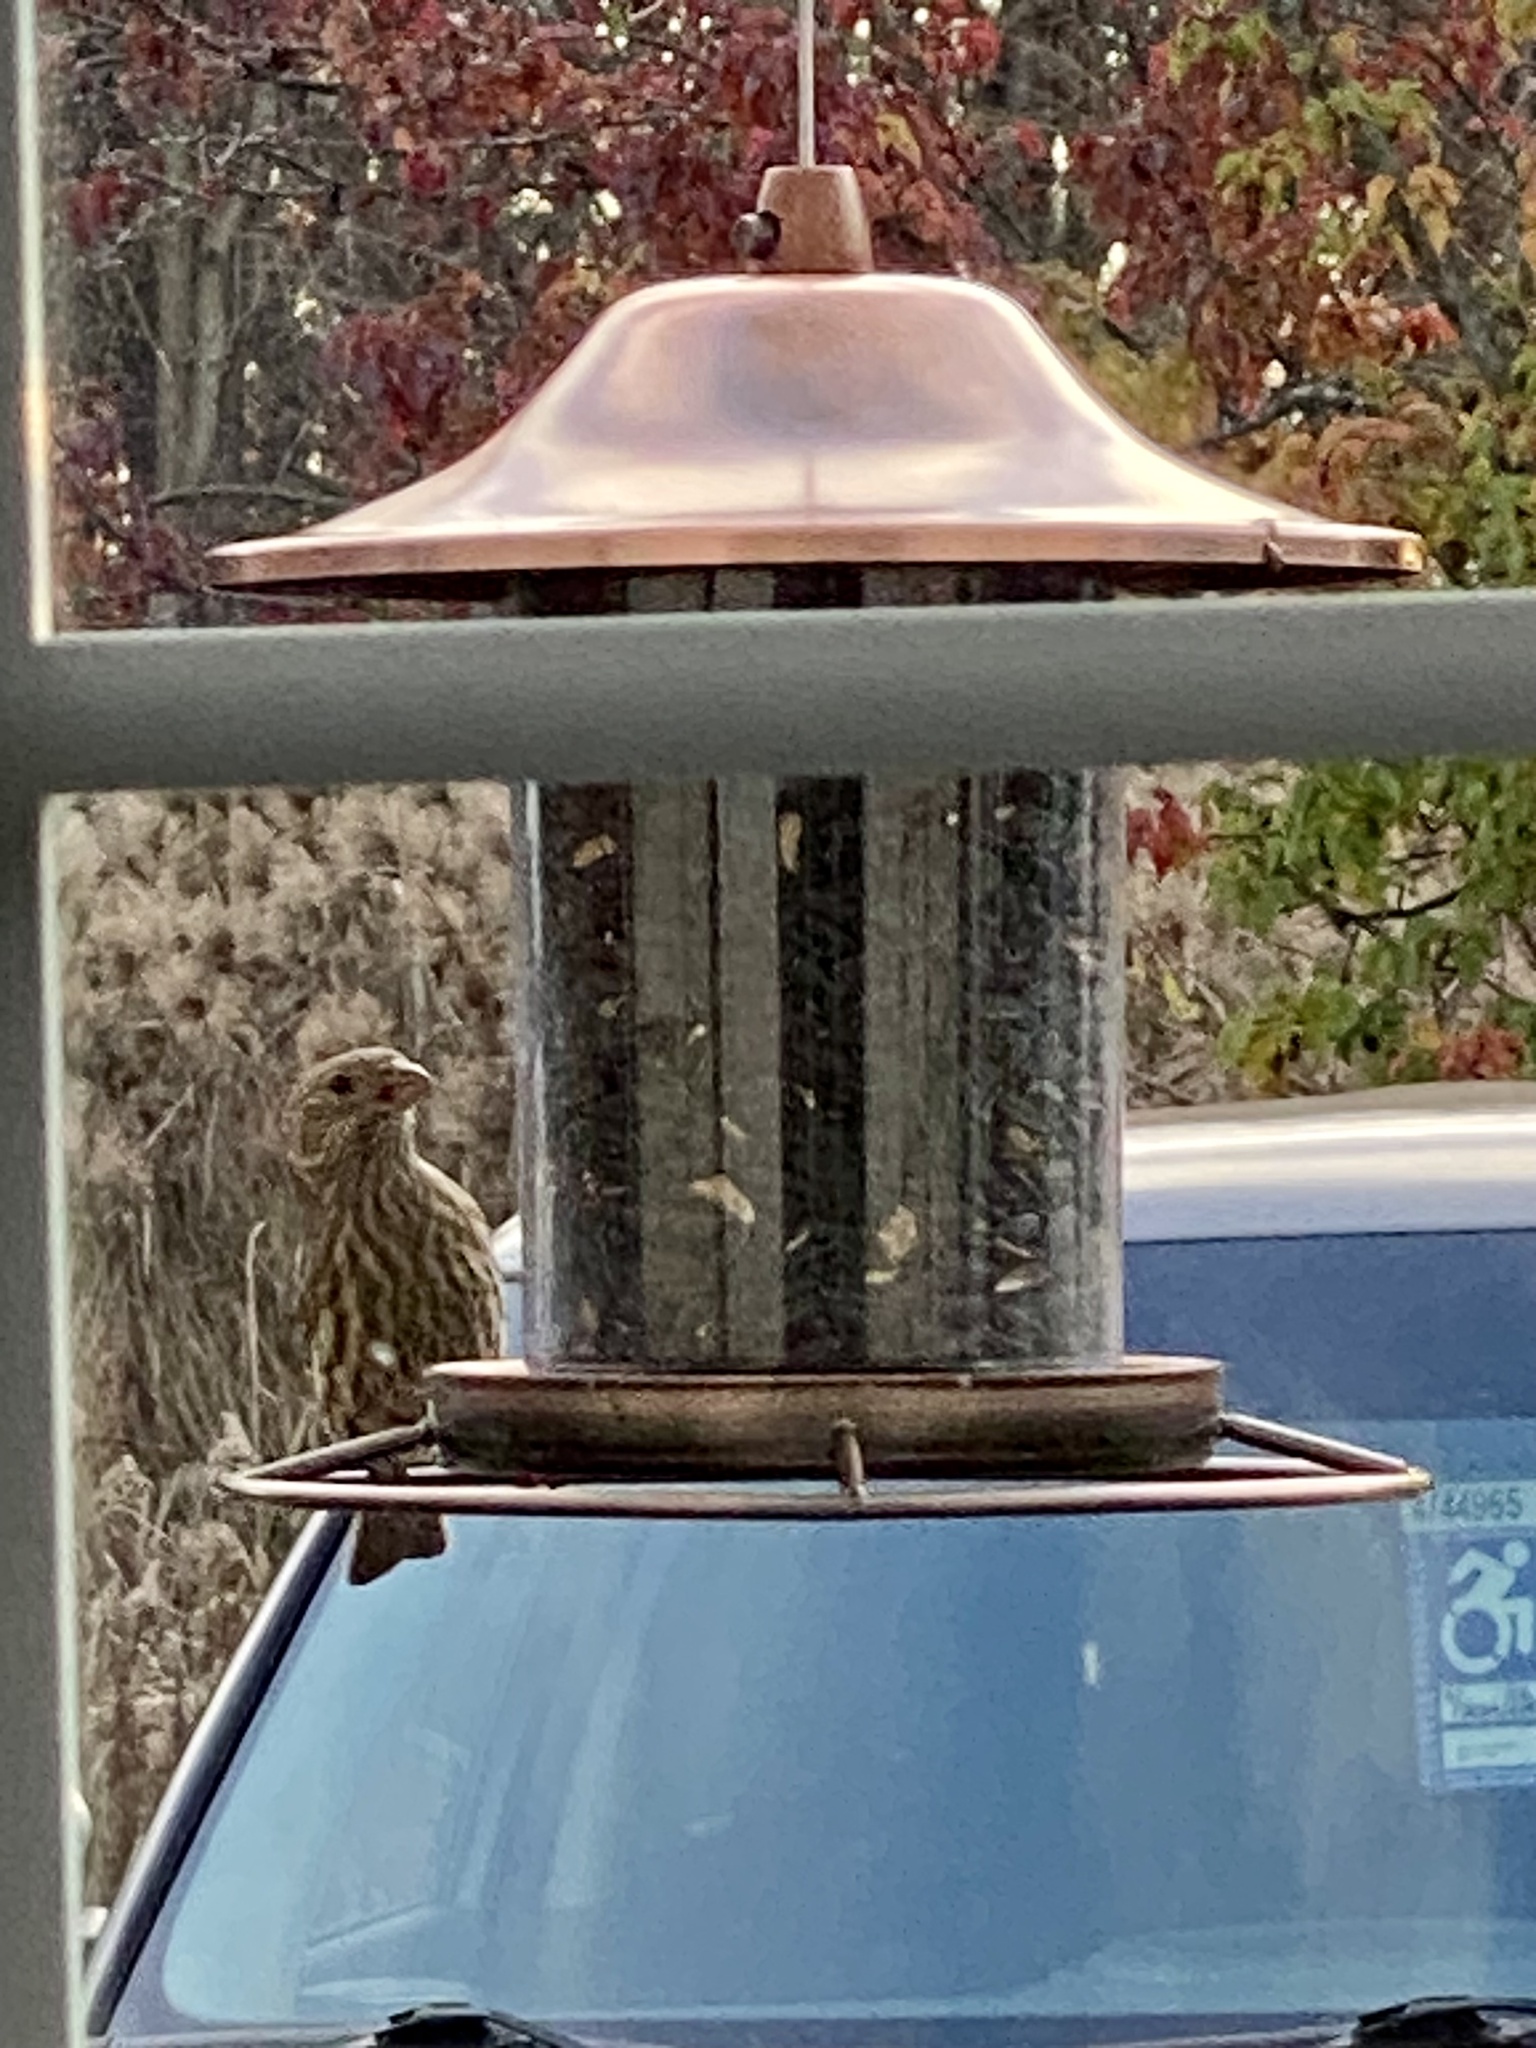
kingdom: Animalia
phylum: Chordata
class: Aves
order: Passeriformes
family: Fringillidae
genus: Haemorhous
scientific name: Haemorhous mexicanus
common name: House finch
